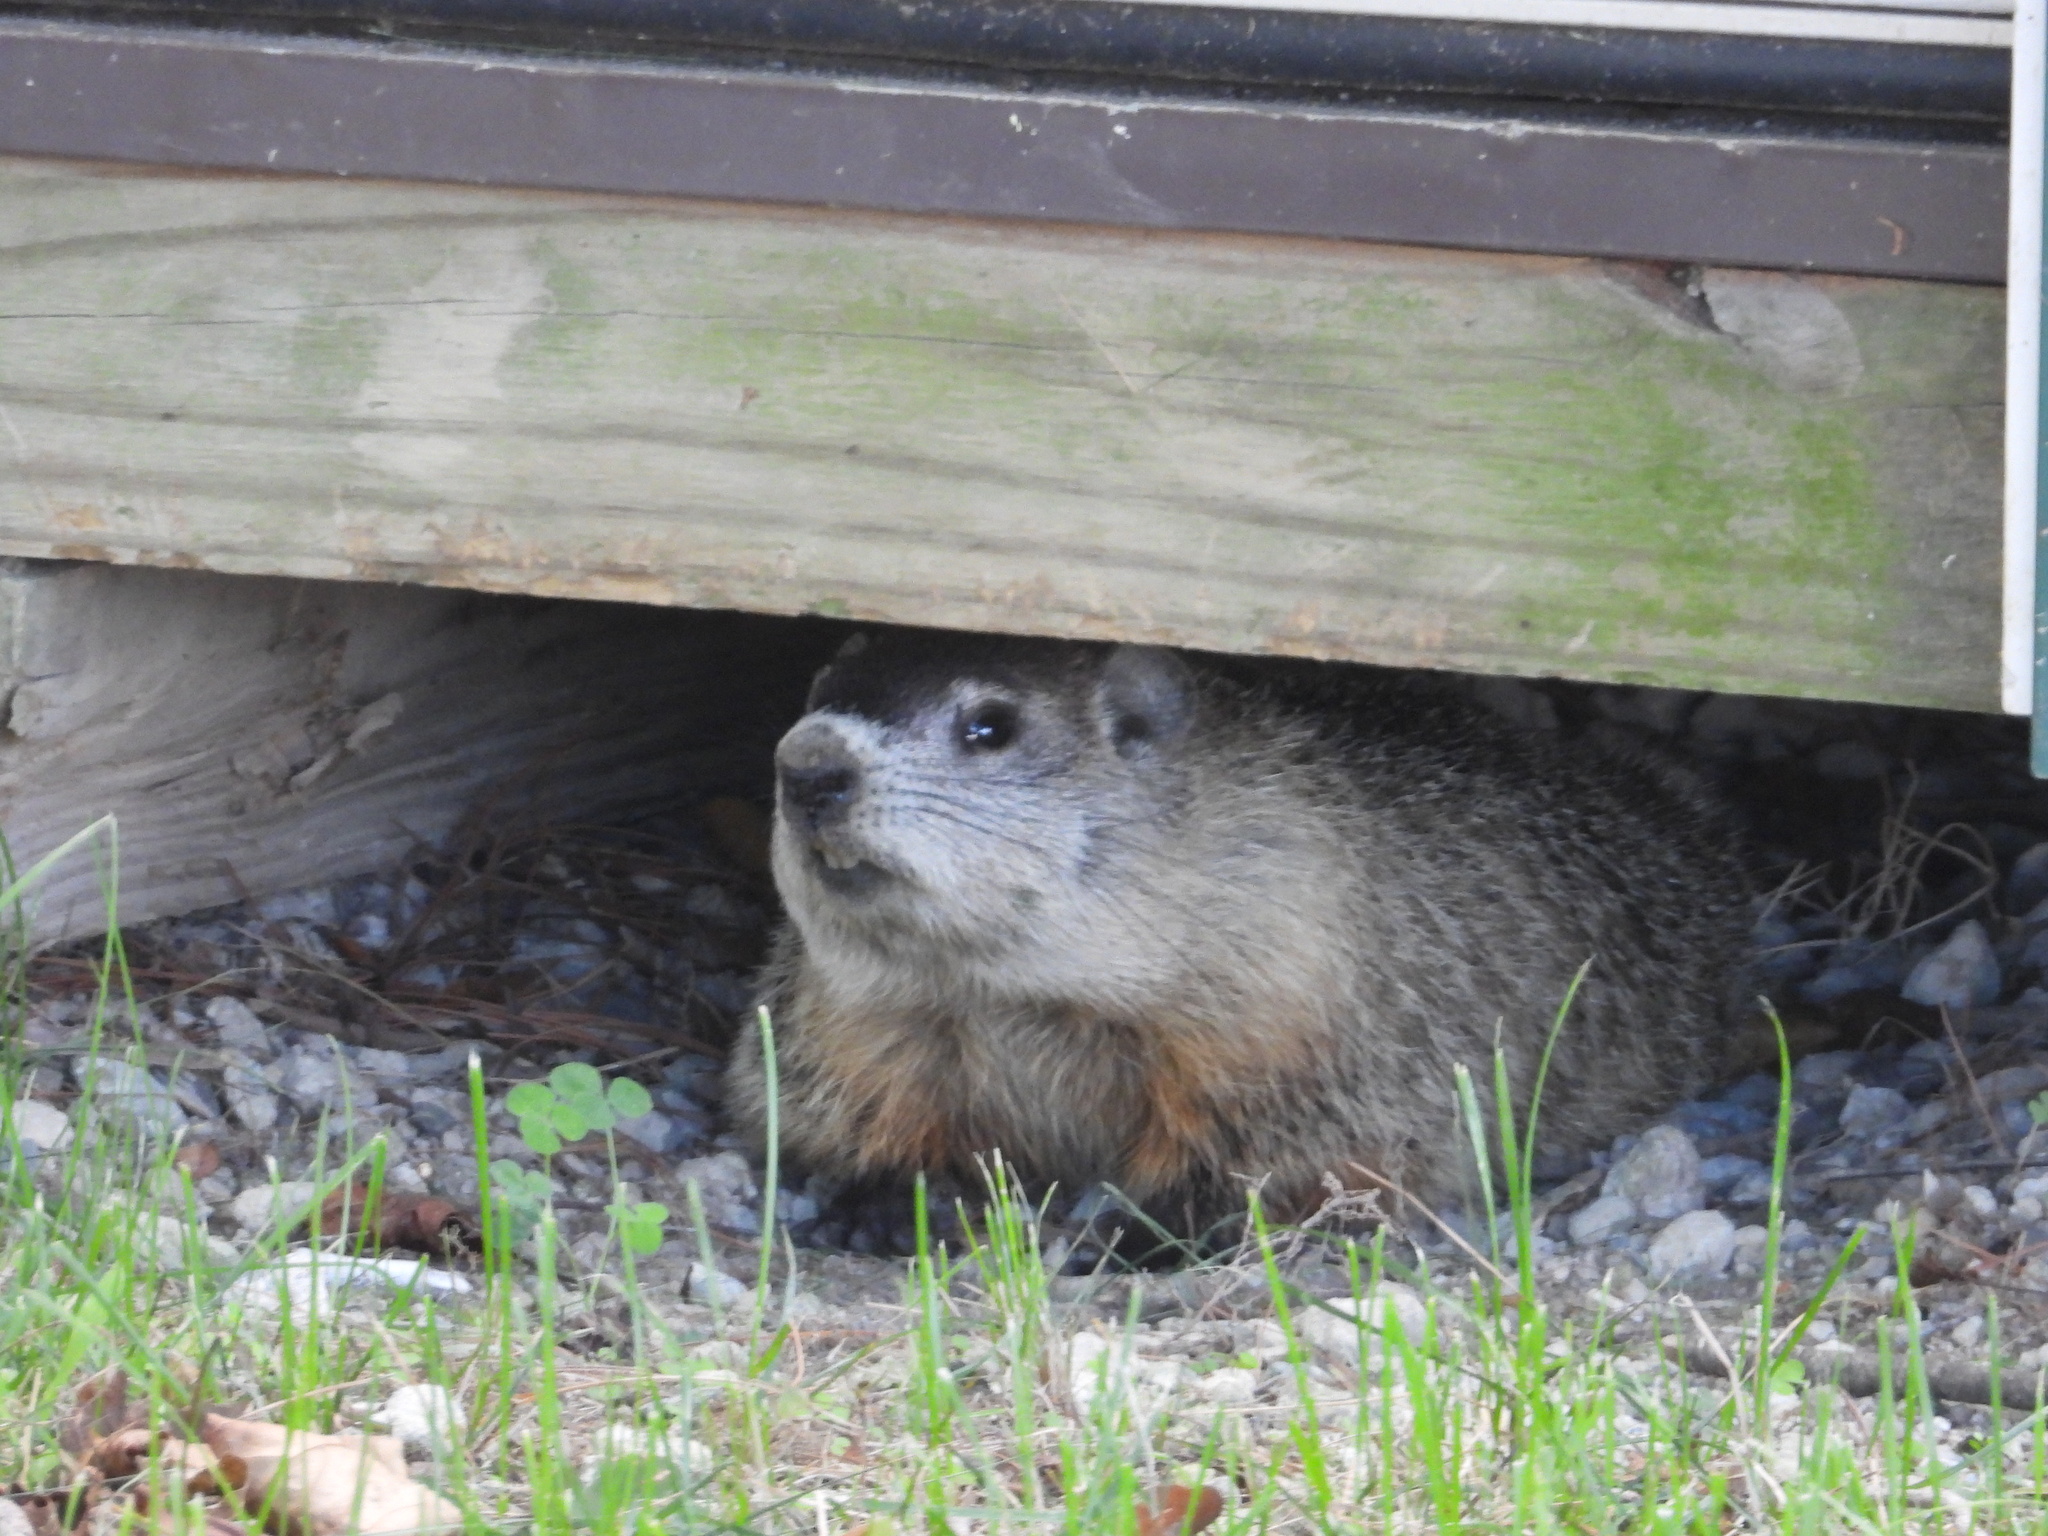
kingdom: Animalia
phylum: Chordata
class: Mammalia
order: Rodentia
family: Sciuridae
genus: Marmota
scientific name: Marmota monax
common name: Groundhog
